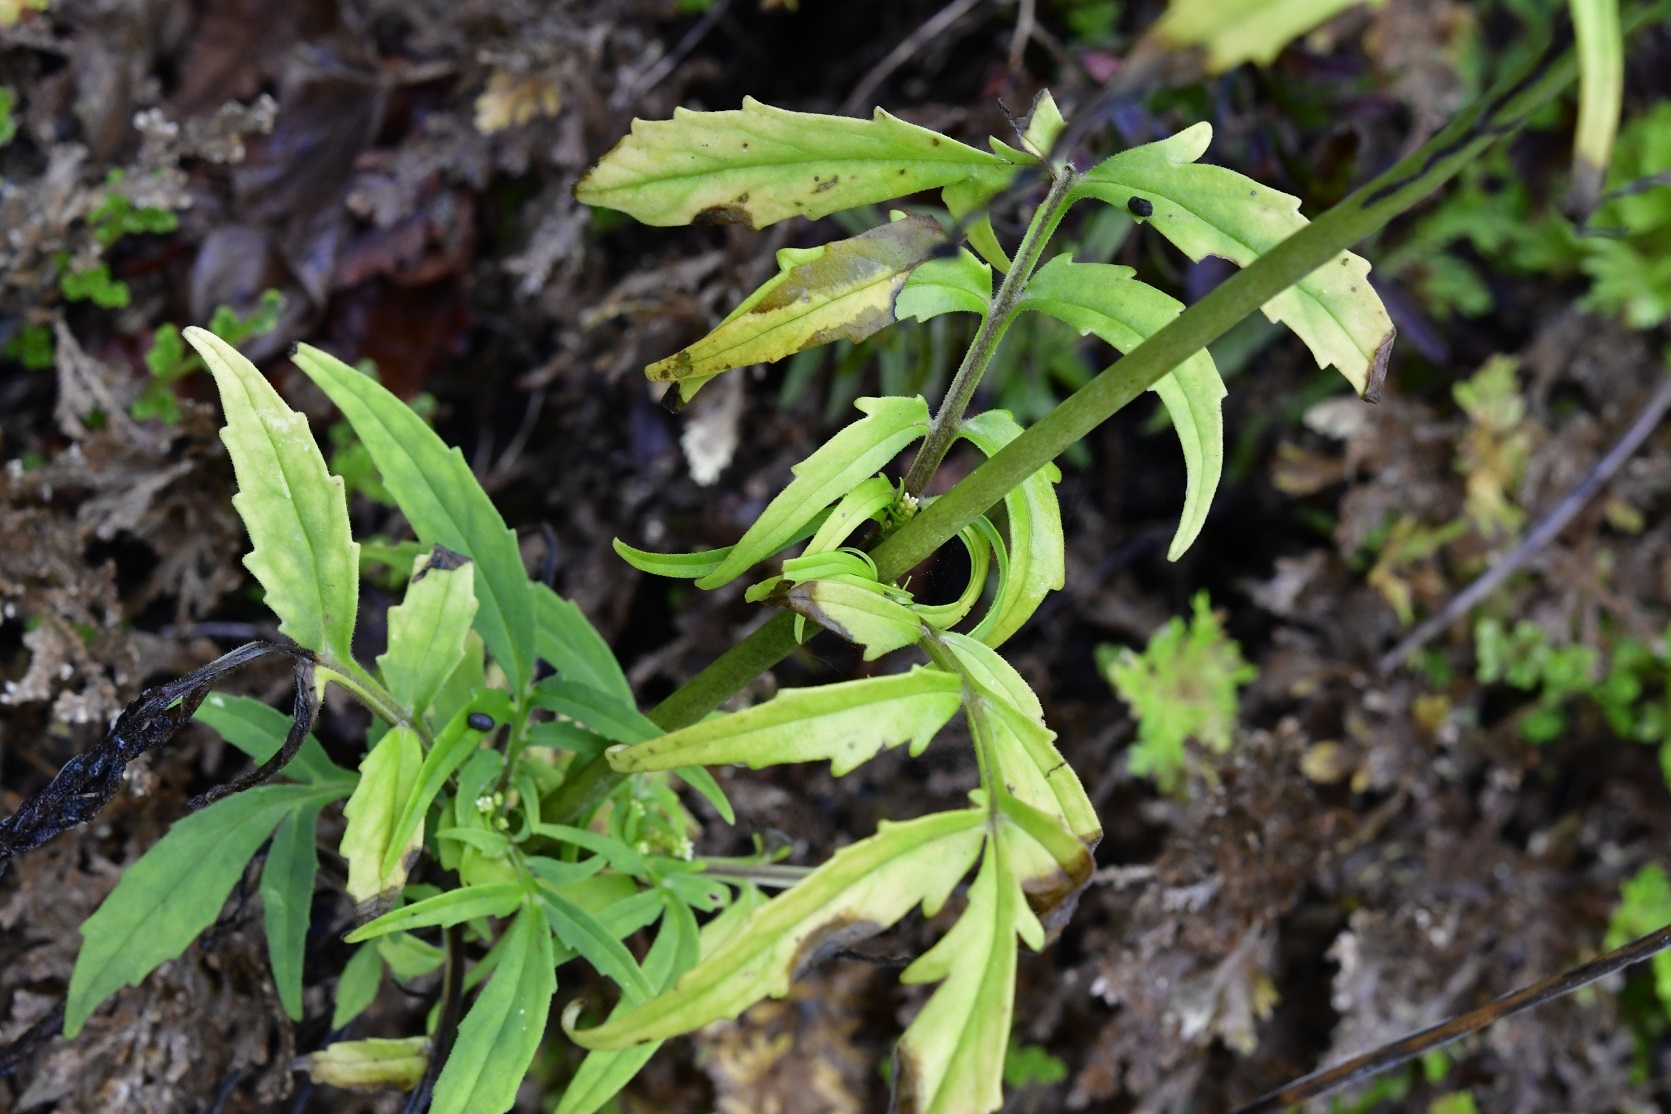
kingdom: Plantae
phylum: Tracheophyta
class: Magnoliopsida
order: Dipsacales
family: Caprifoliaceae
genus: Valeriana
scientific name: Valeriana sorbifolia
